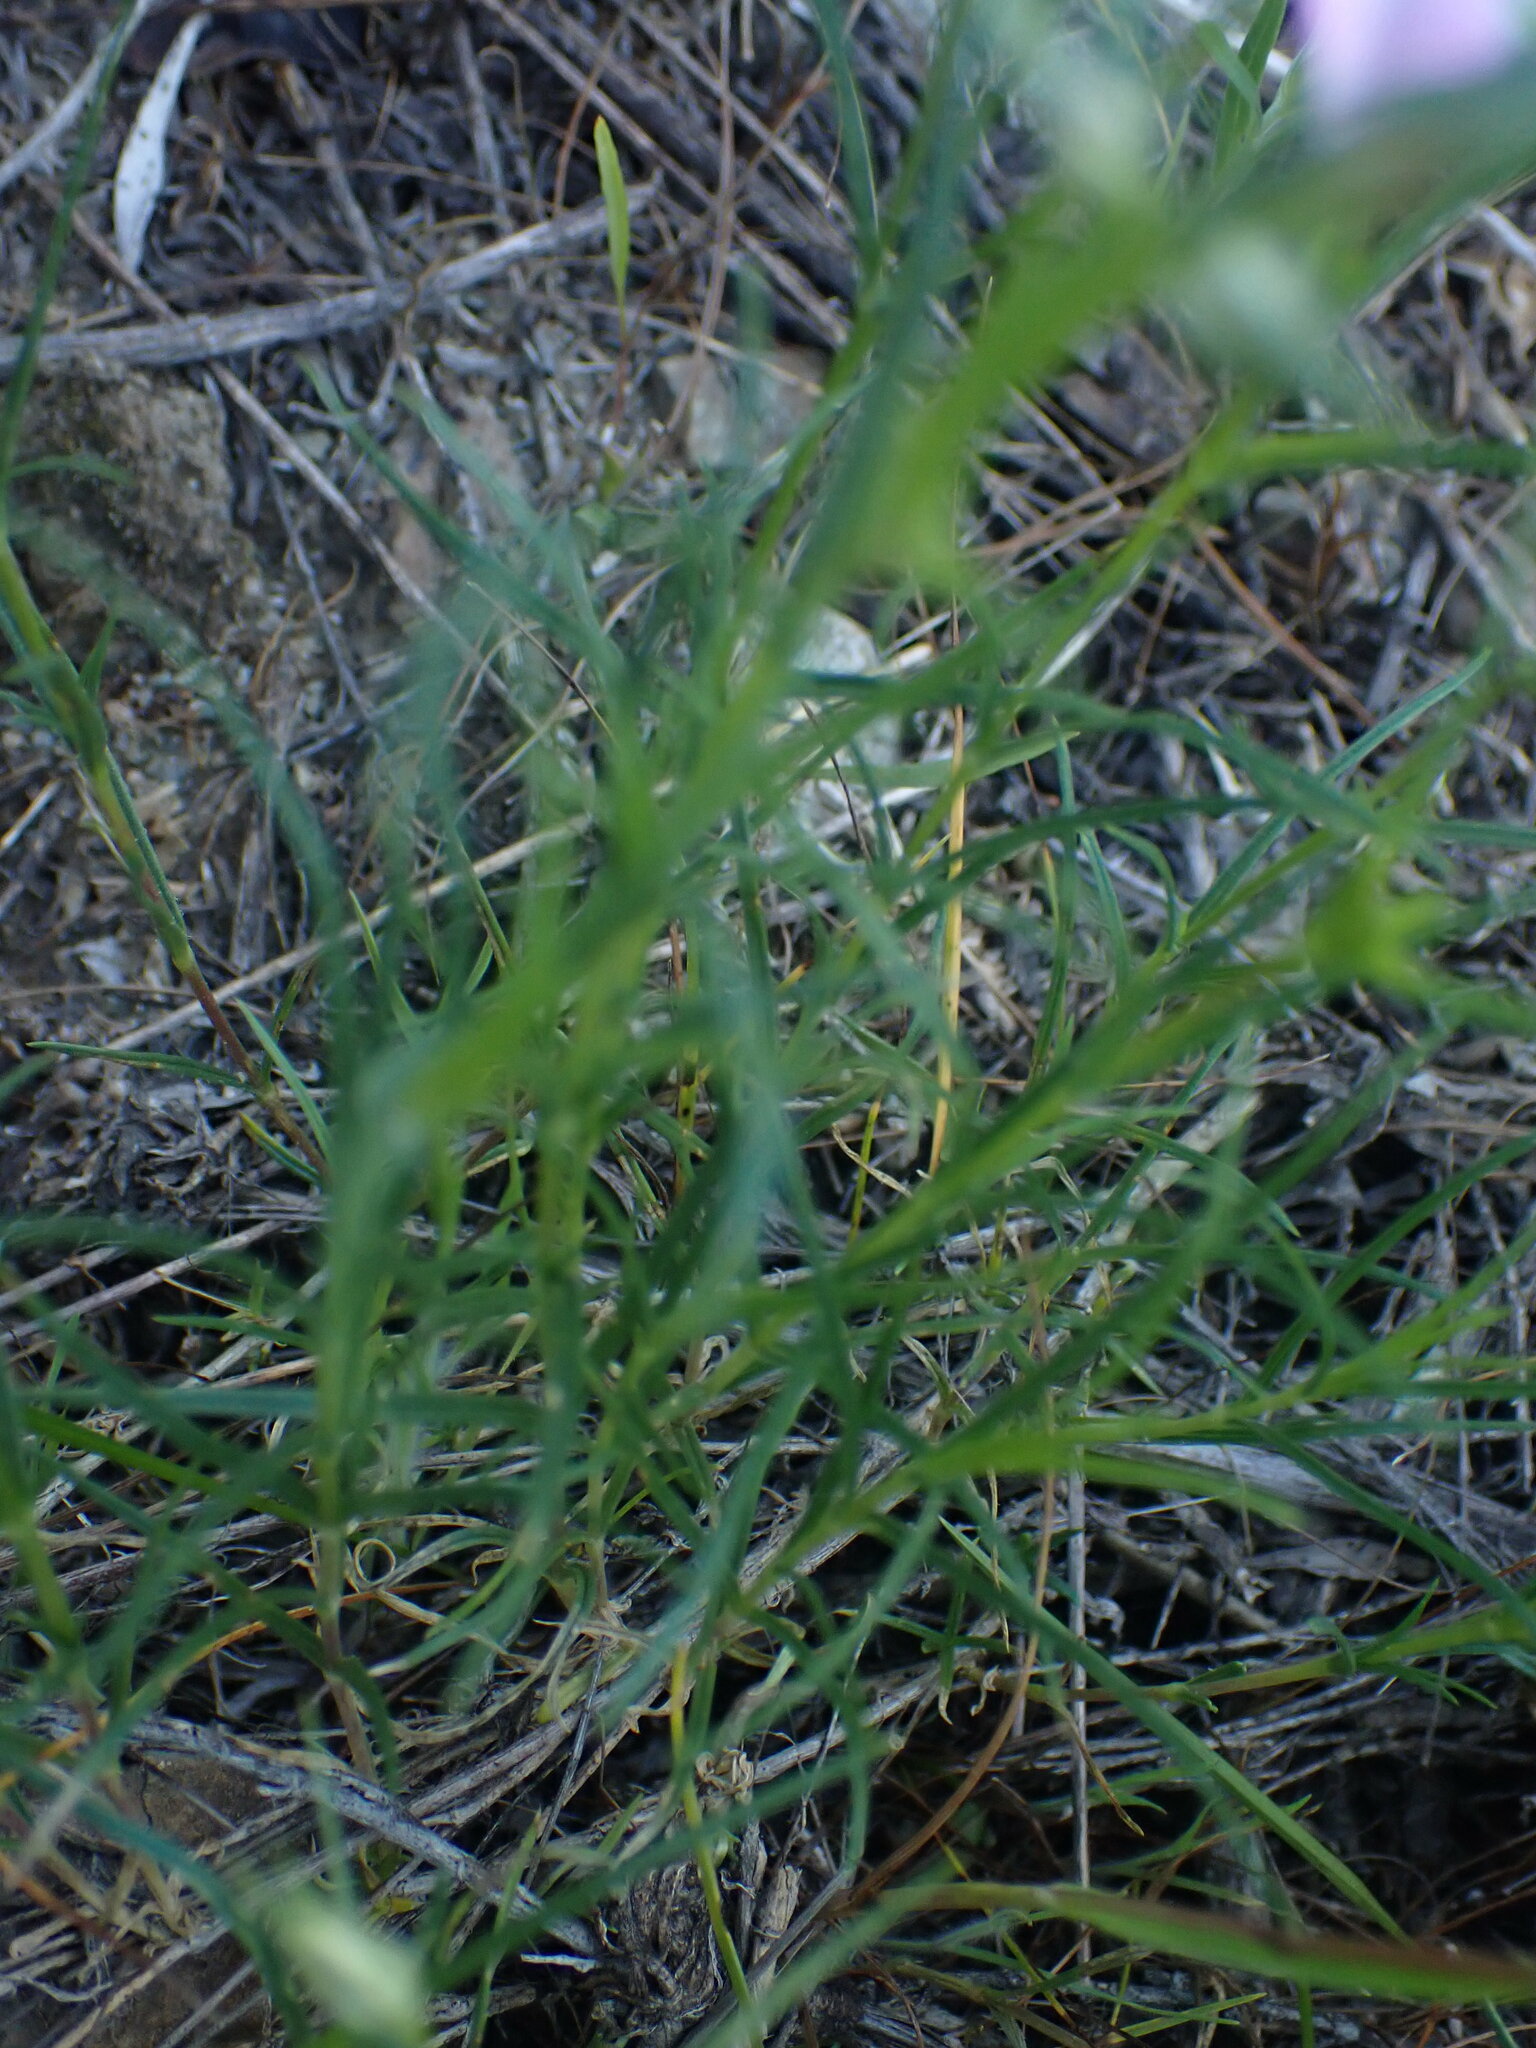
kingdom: Plantae
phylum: Tracheophyta
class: Magnoliopsida
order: Ericales
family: Polemoniaceae
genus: Phlox
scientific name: Phlox longifolia
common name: Longleaf phlox
